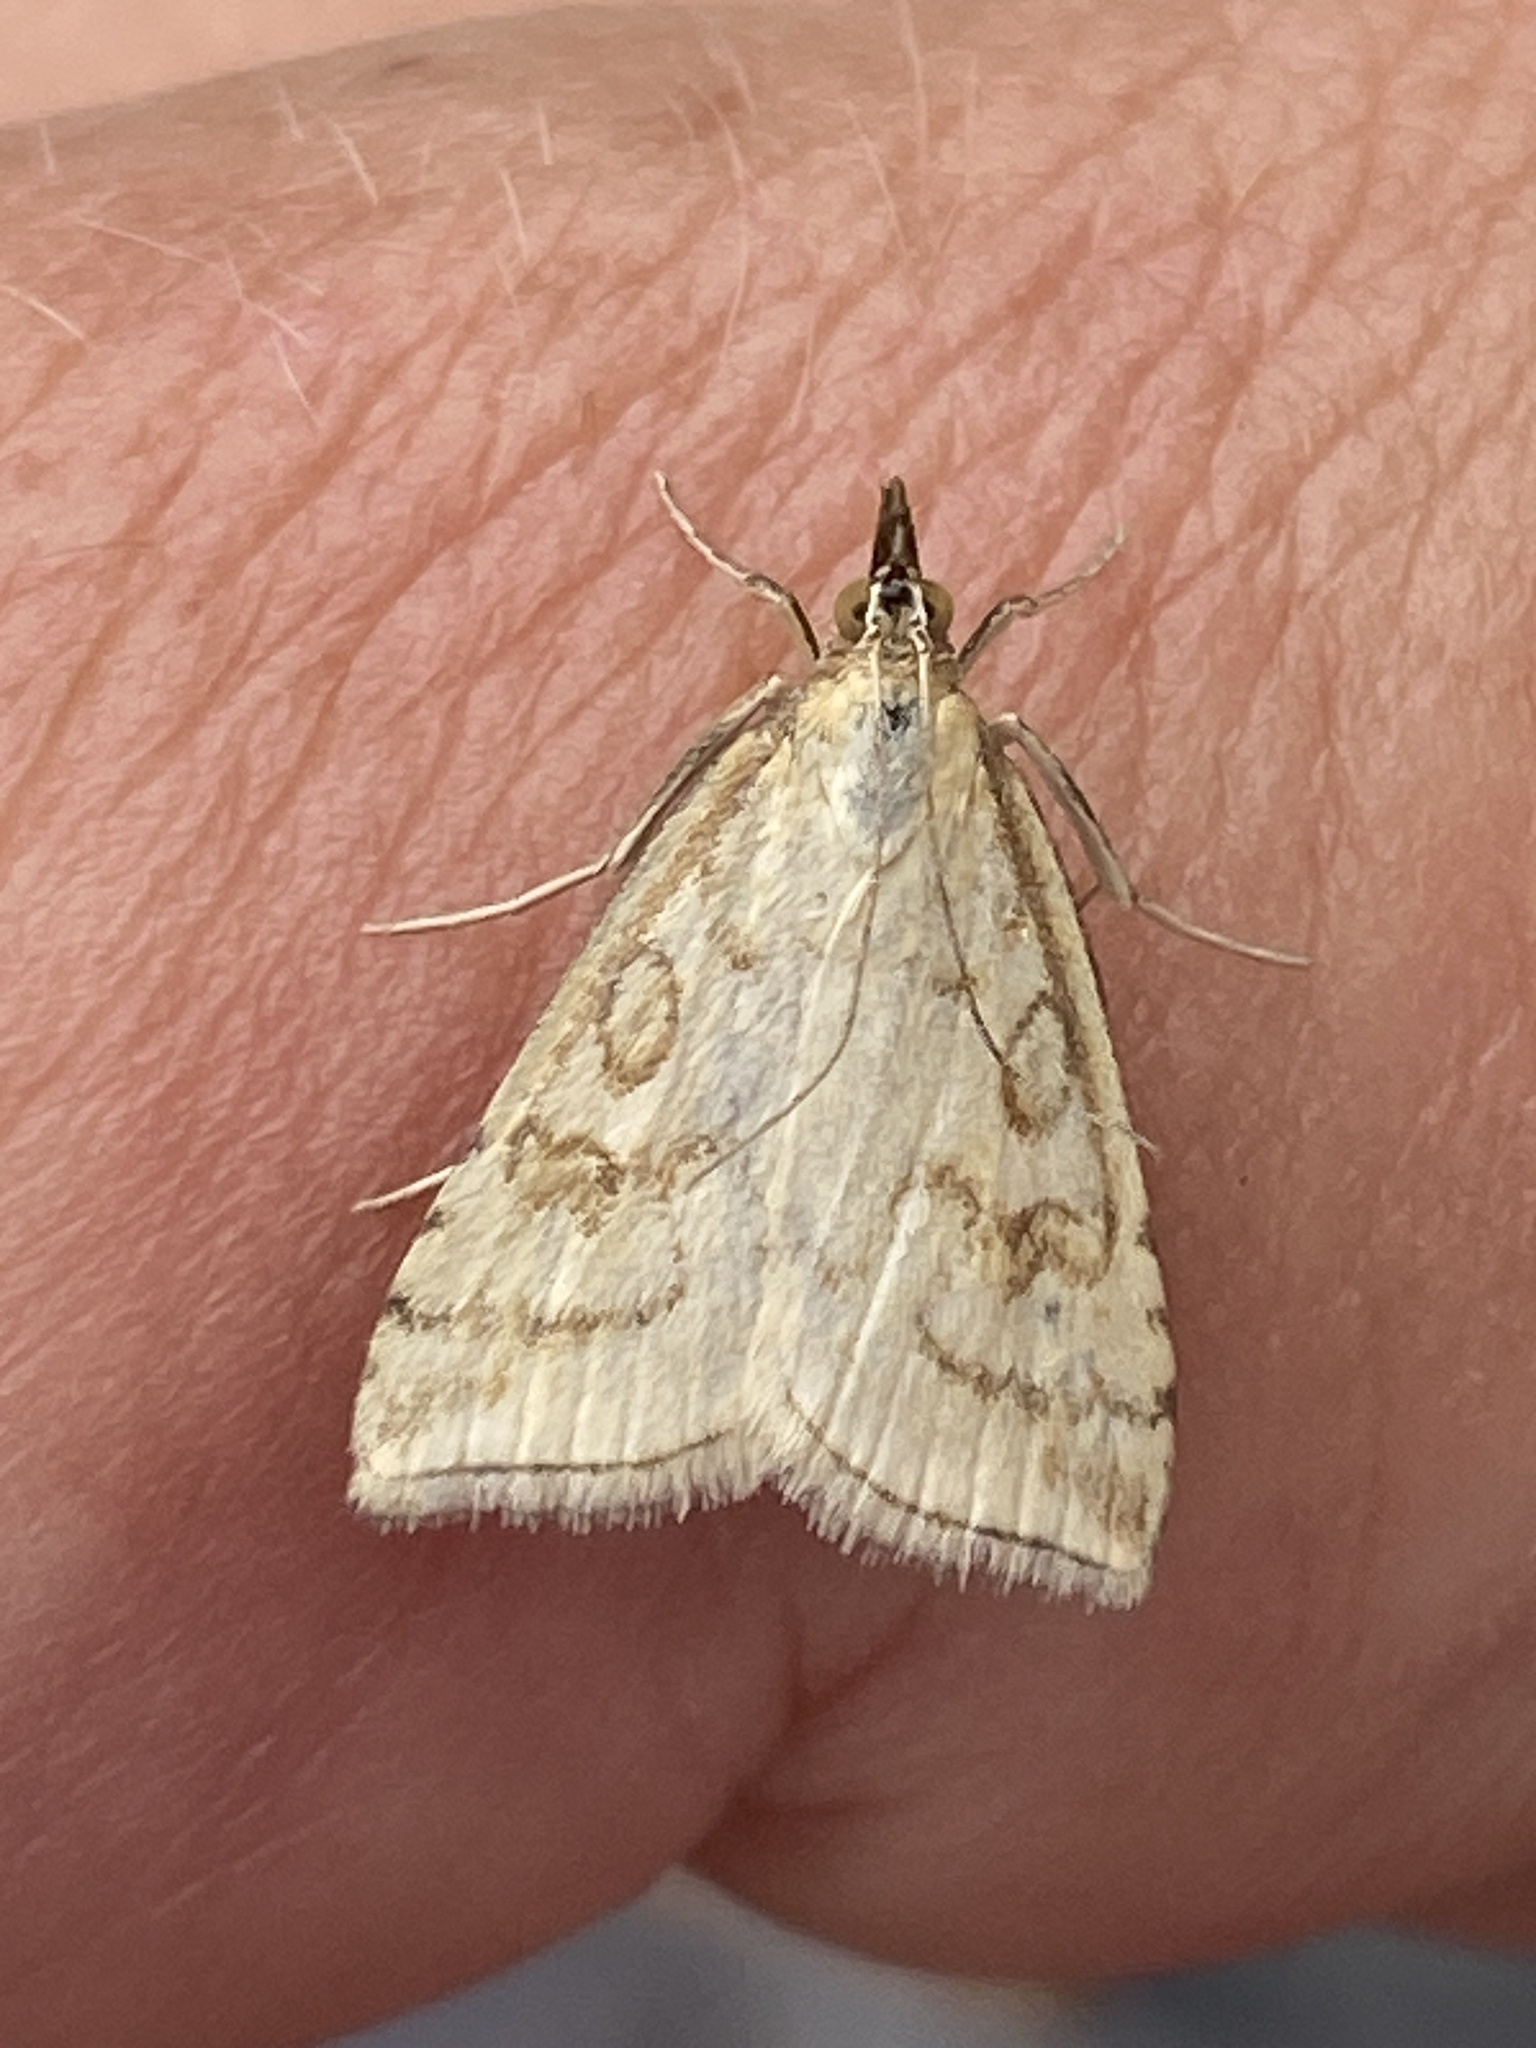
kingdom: Animalia
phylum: Arthropoda
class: Insecta
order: Lepidoptera
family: Crambidae
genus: Udea
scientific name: Udea lutealis
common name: Pale straw pearl
